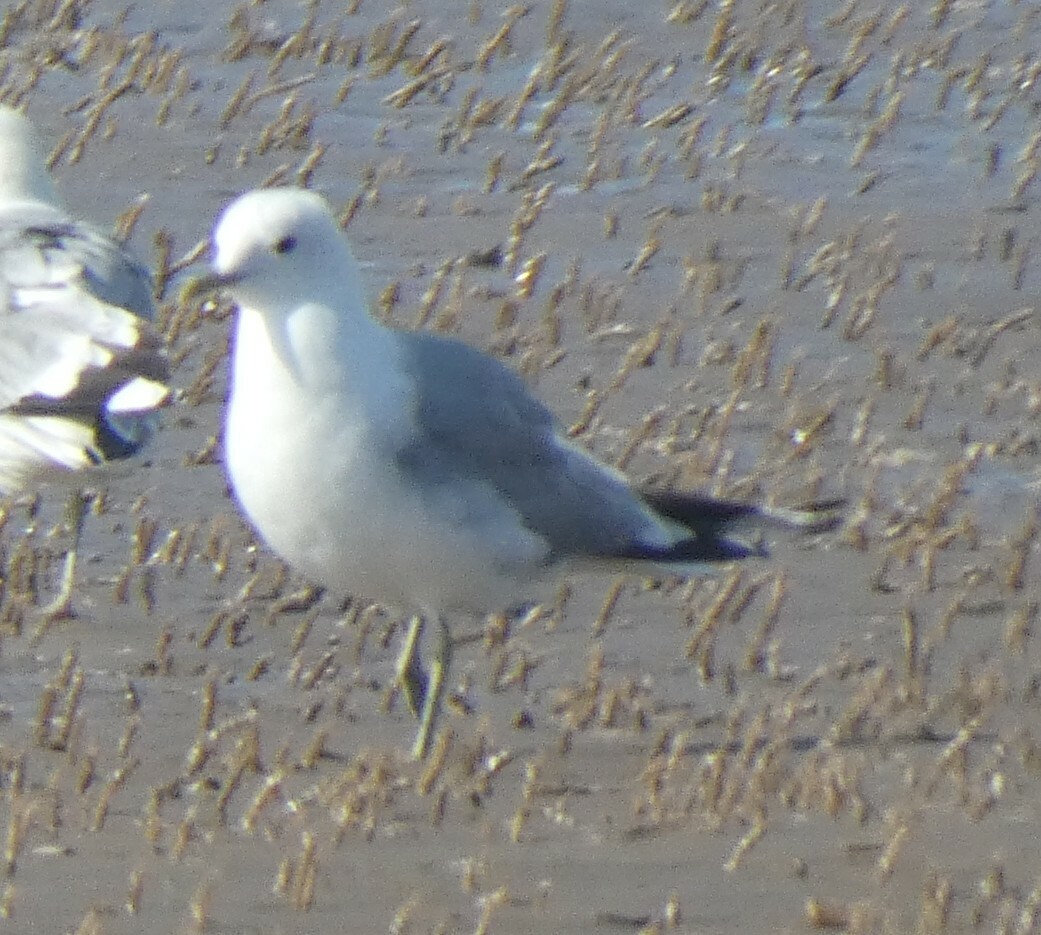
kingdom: Animalia
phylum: Chordata
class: Aves
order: Charadriiformes
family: Laridae
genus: Larus
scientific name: Larus canus
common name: Mew gull
